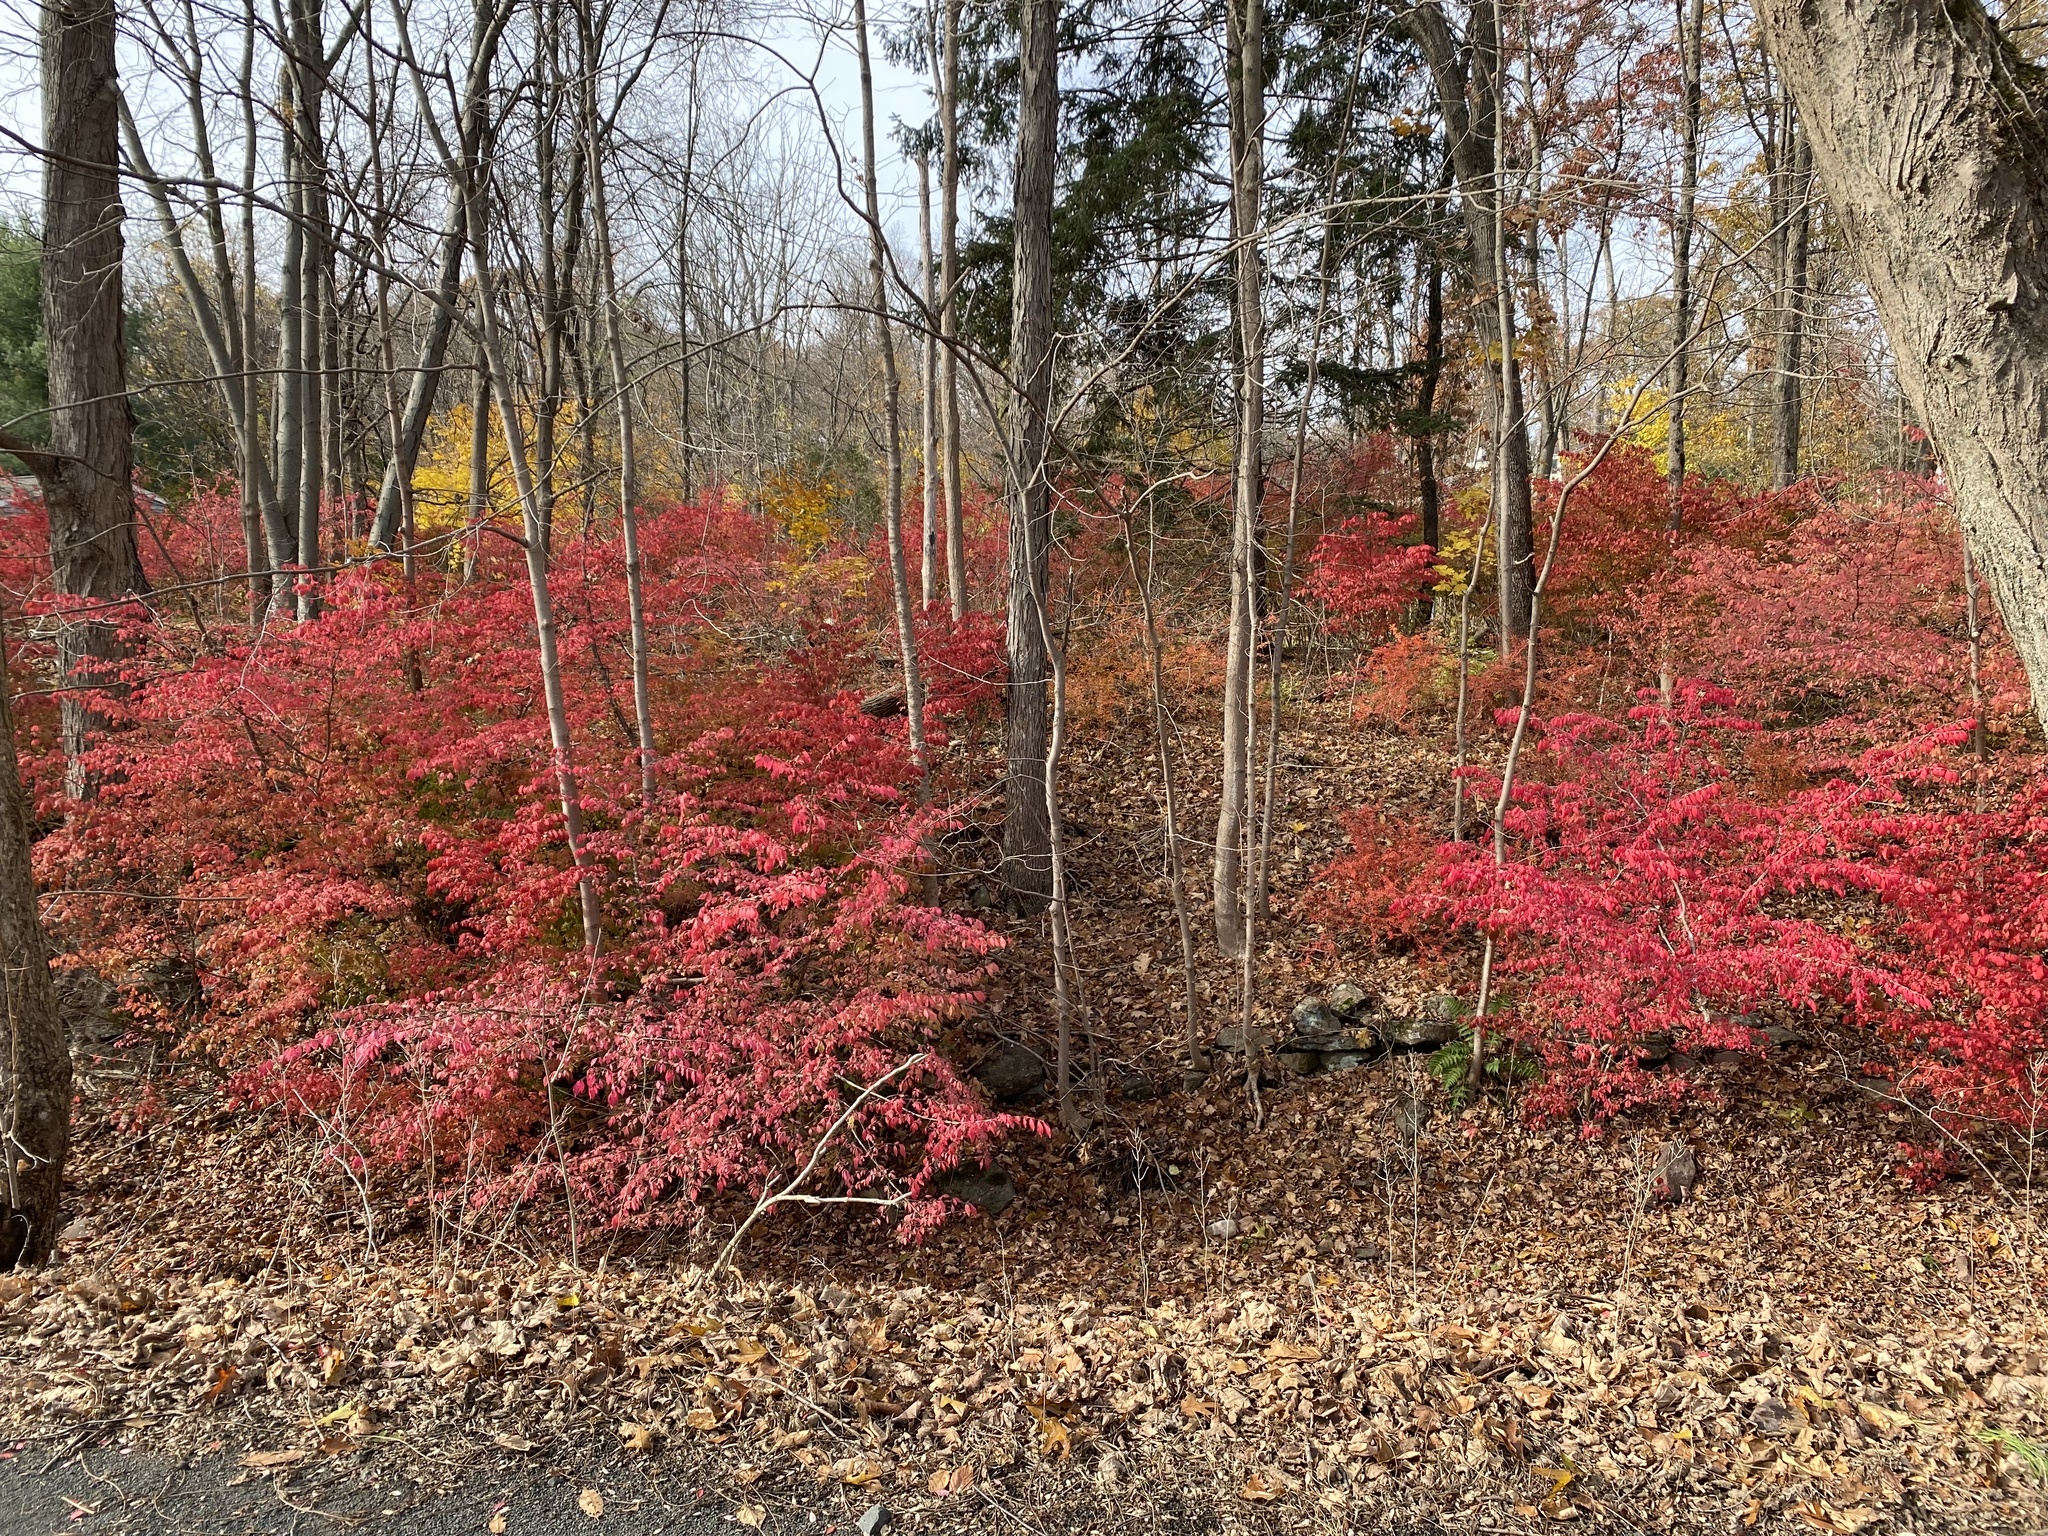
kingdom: Plantae
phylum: Tracheophyta
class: Magnoliopsida
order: Celastrales
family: Celastraceae
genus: Euonymus
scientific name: Euonymus alatus
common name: Winged euonymus
